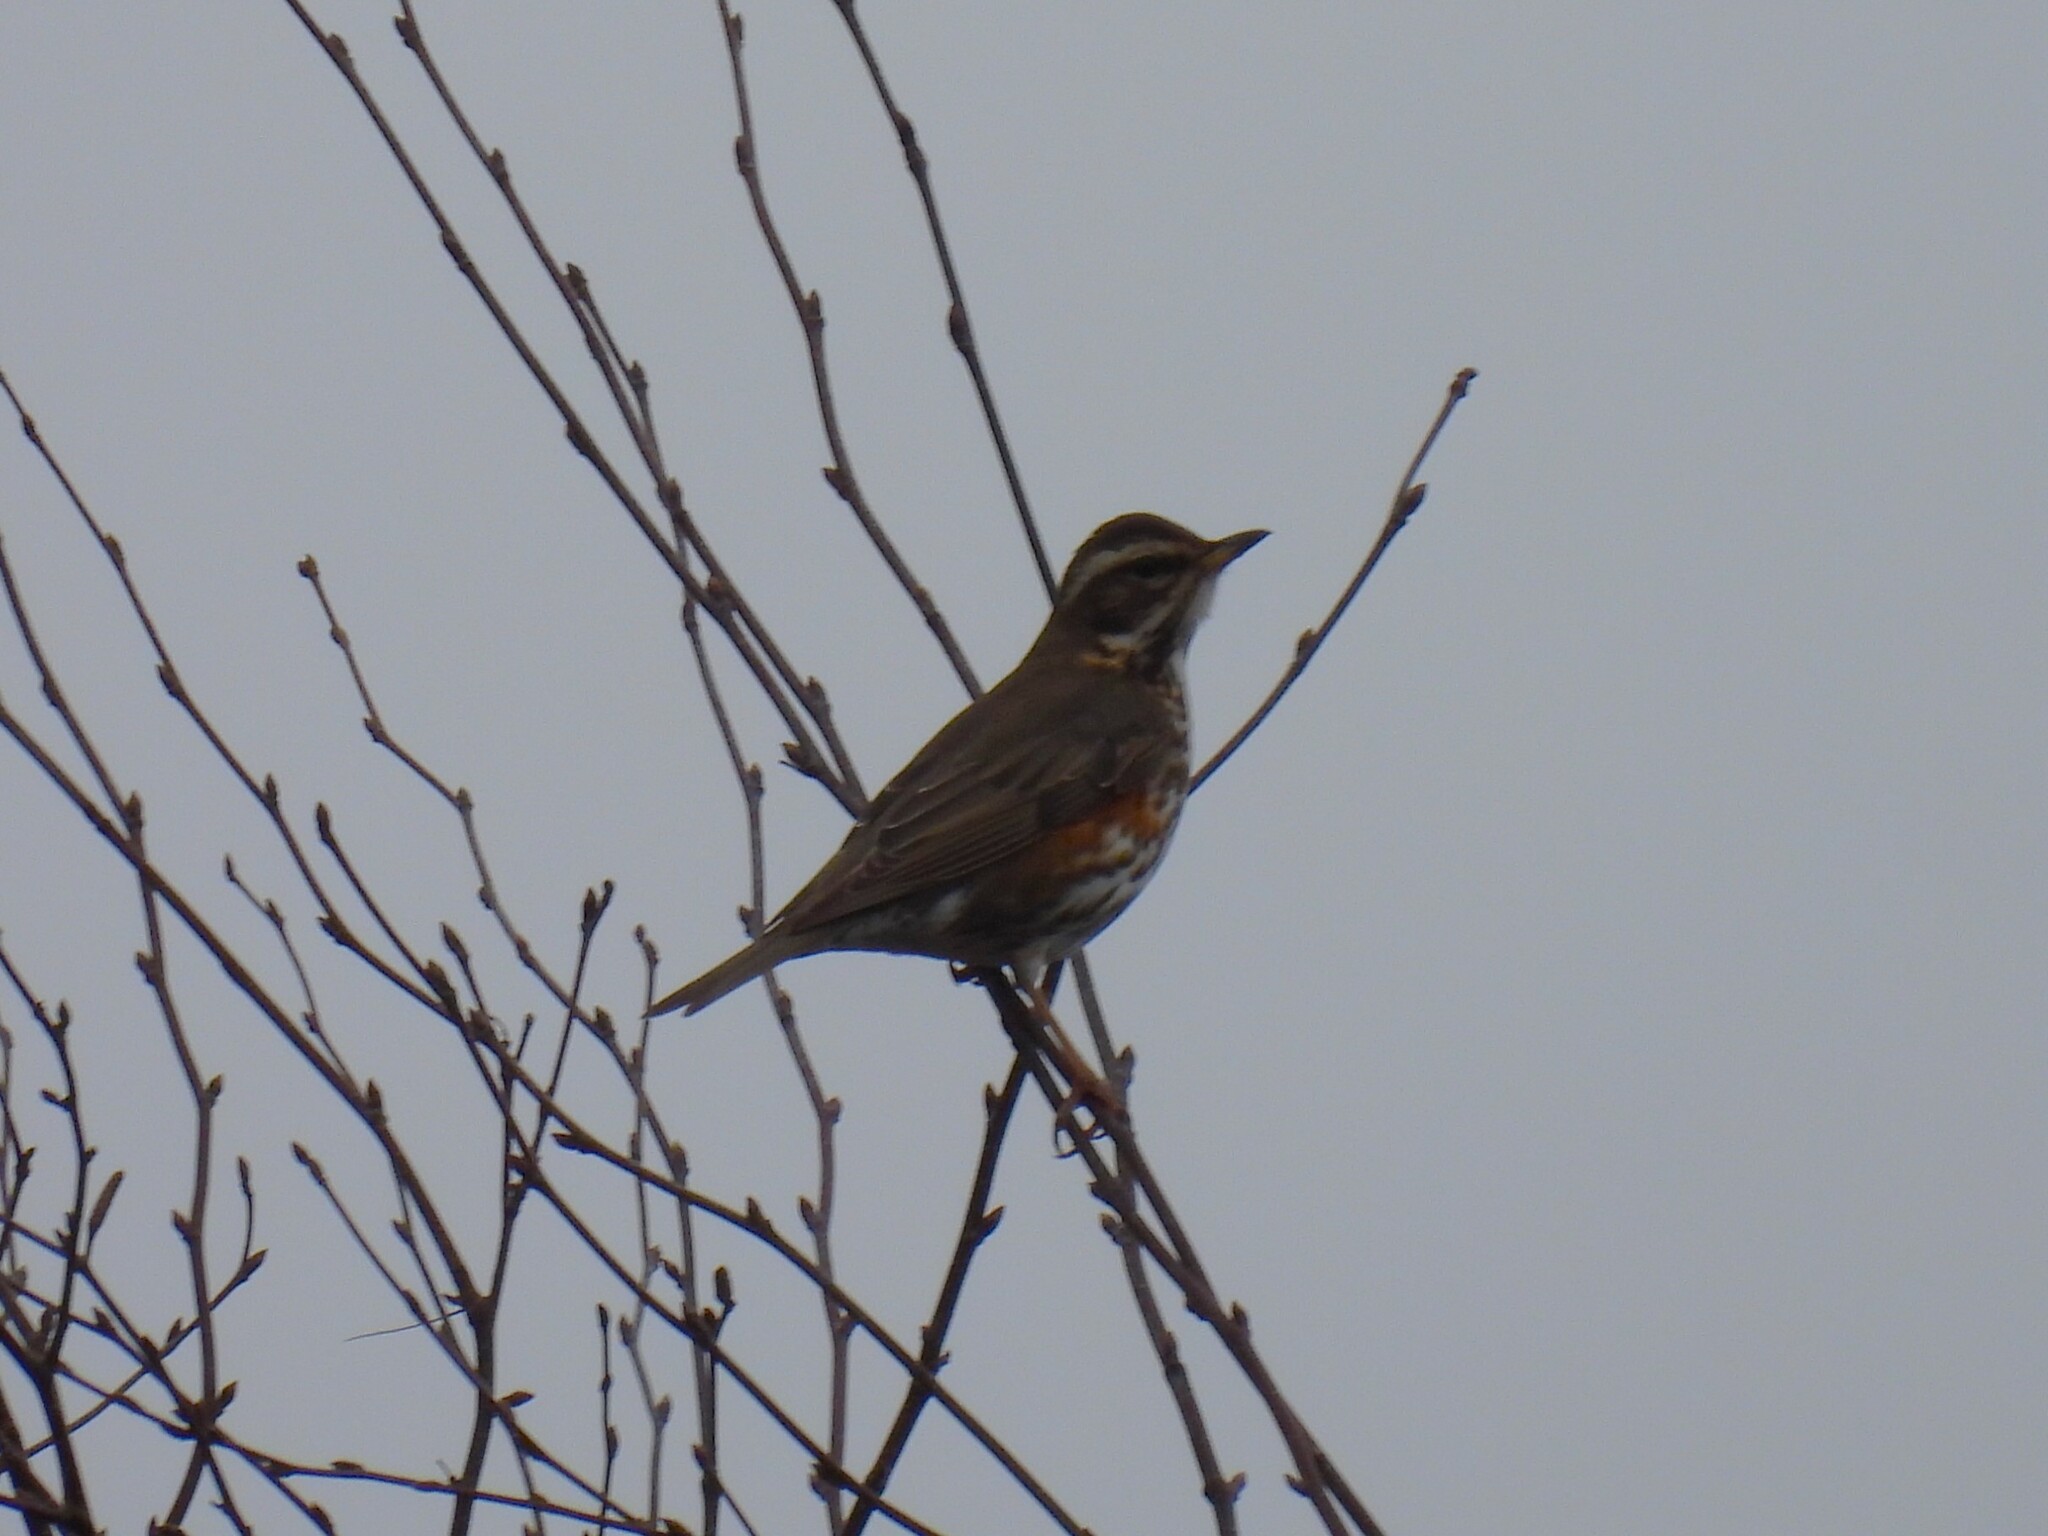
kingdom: Animalia
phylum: Chordata
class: Aves
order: Passeriformes
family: Turdidae
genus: Turdus
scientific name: Turdus iliacus
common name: Redwing
